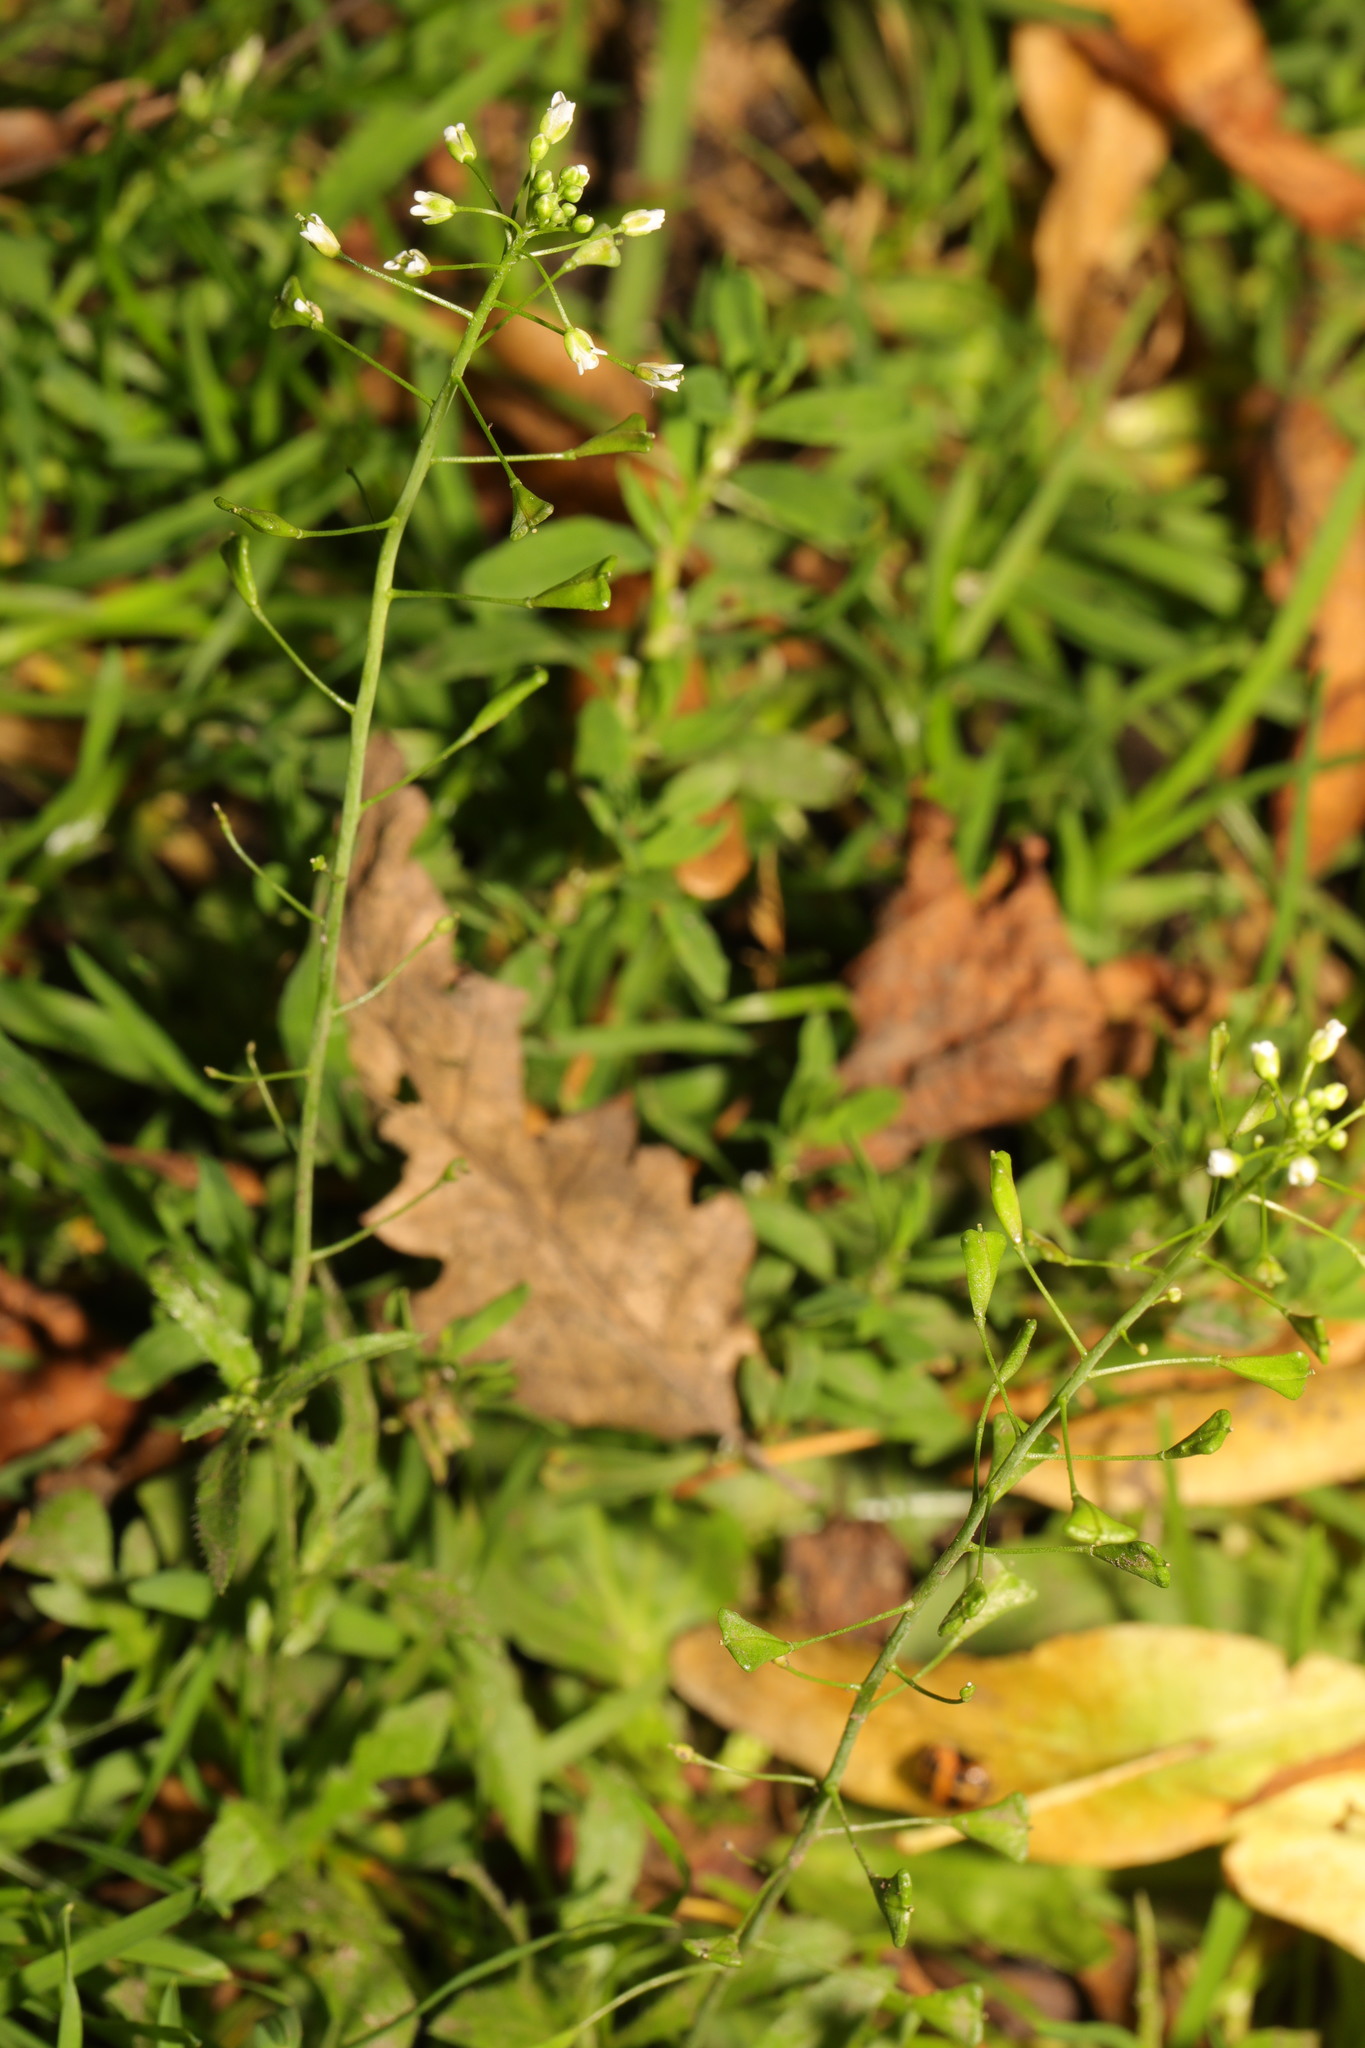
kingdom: Plantae
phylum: Tracheophyta
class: Magnoliopsida
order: Brassicales
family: Brassicaceae
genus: Capsella
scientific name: Capsella bursa-pastoris
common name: Shepherd's purse
